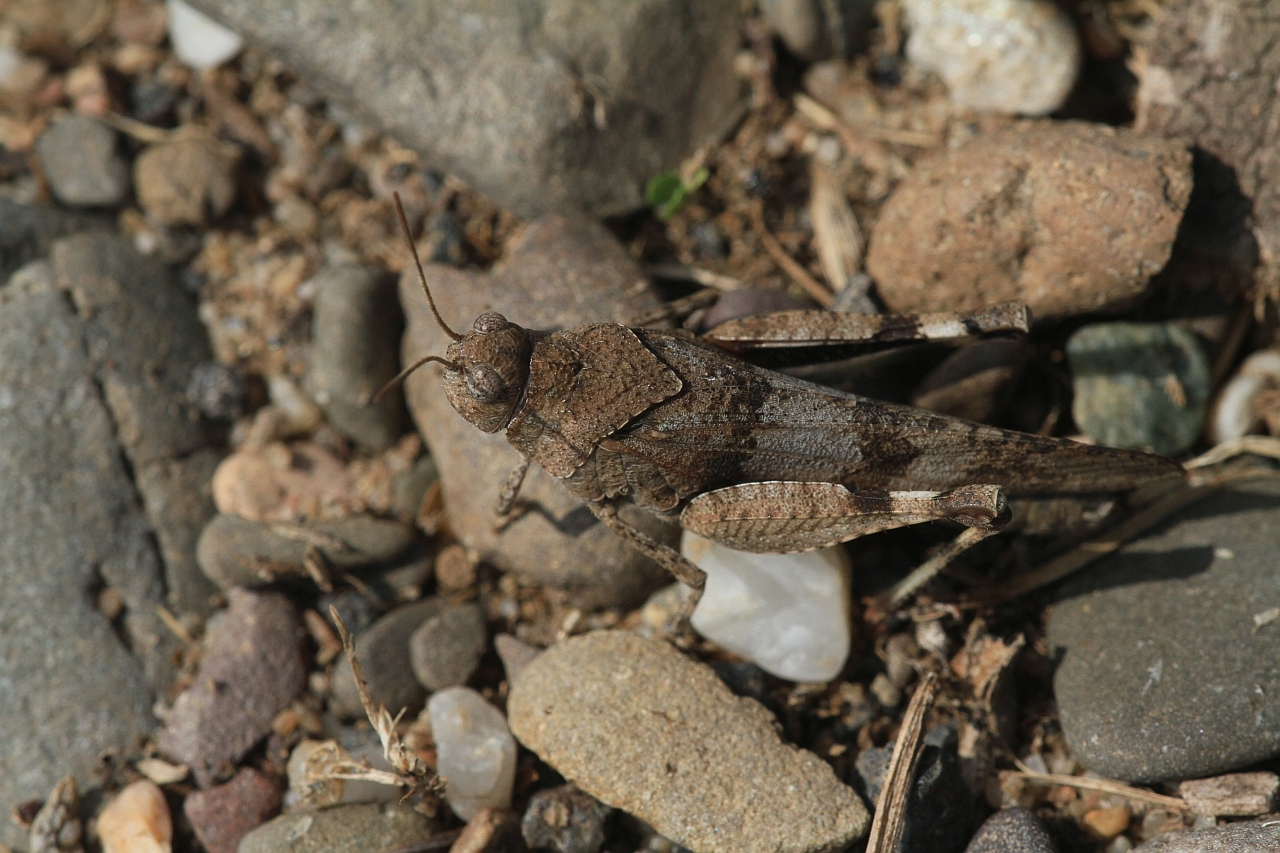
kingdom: Animalia
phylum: Arthropoda
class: Insecta
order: Orthoptera
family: Acrididae
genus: Oedipoda
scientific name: Oedipoda caerulescens
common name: Blue-winged grasshopper
